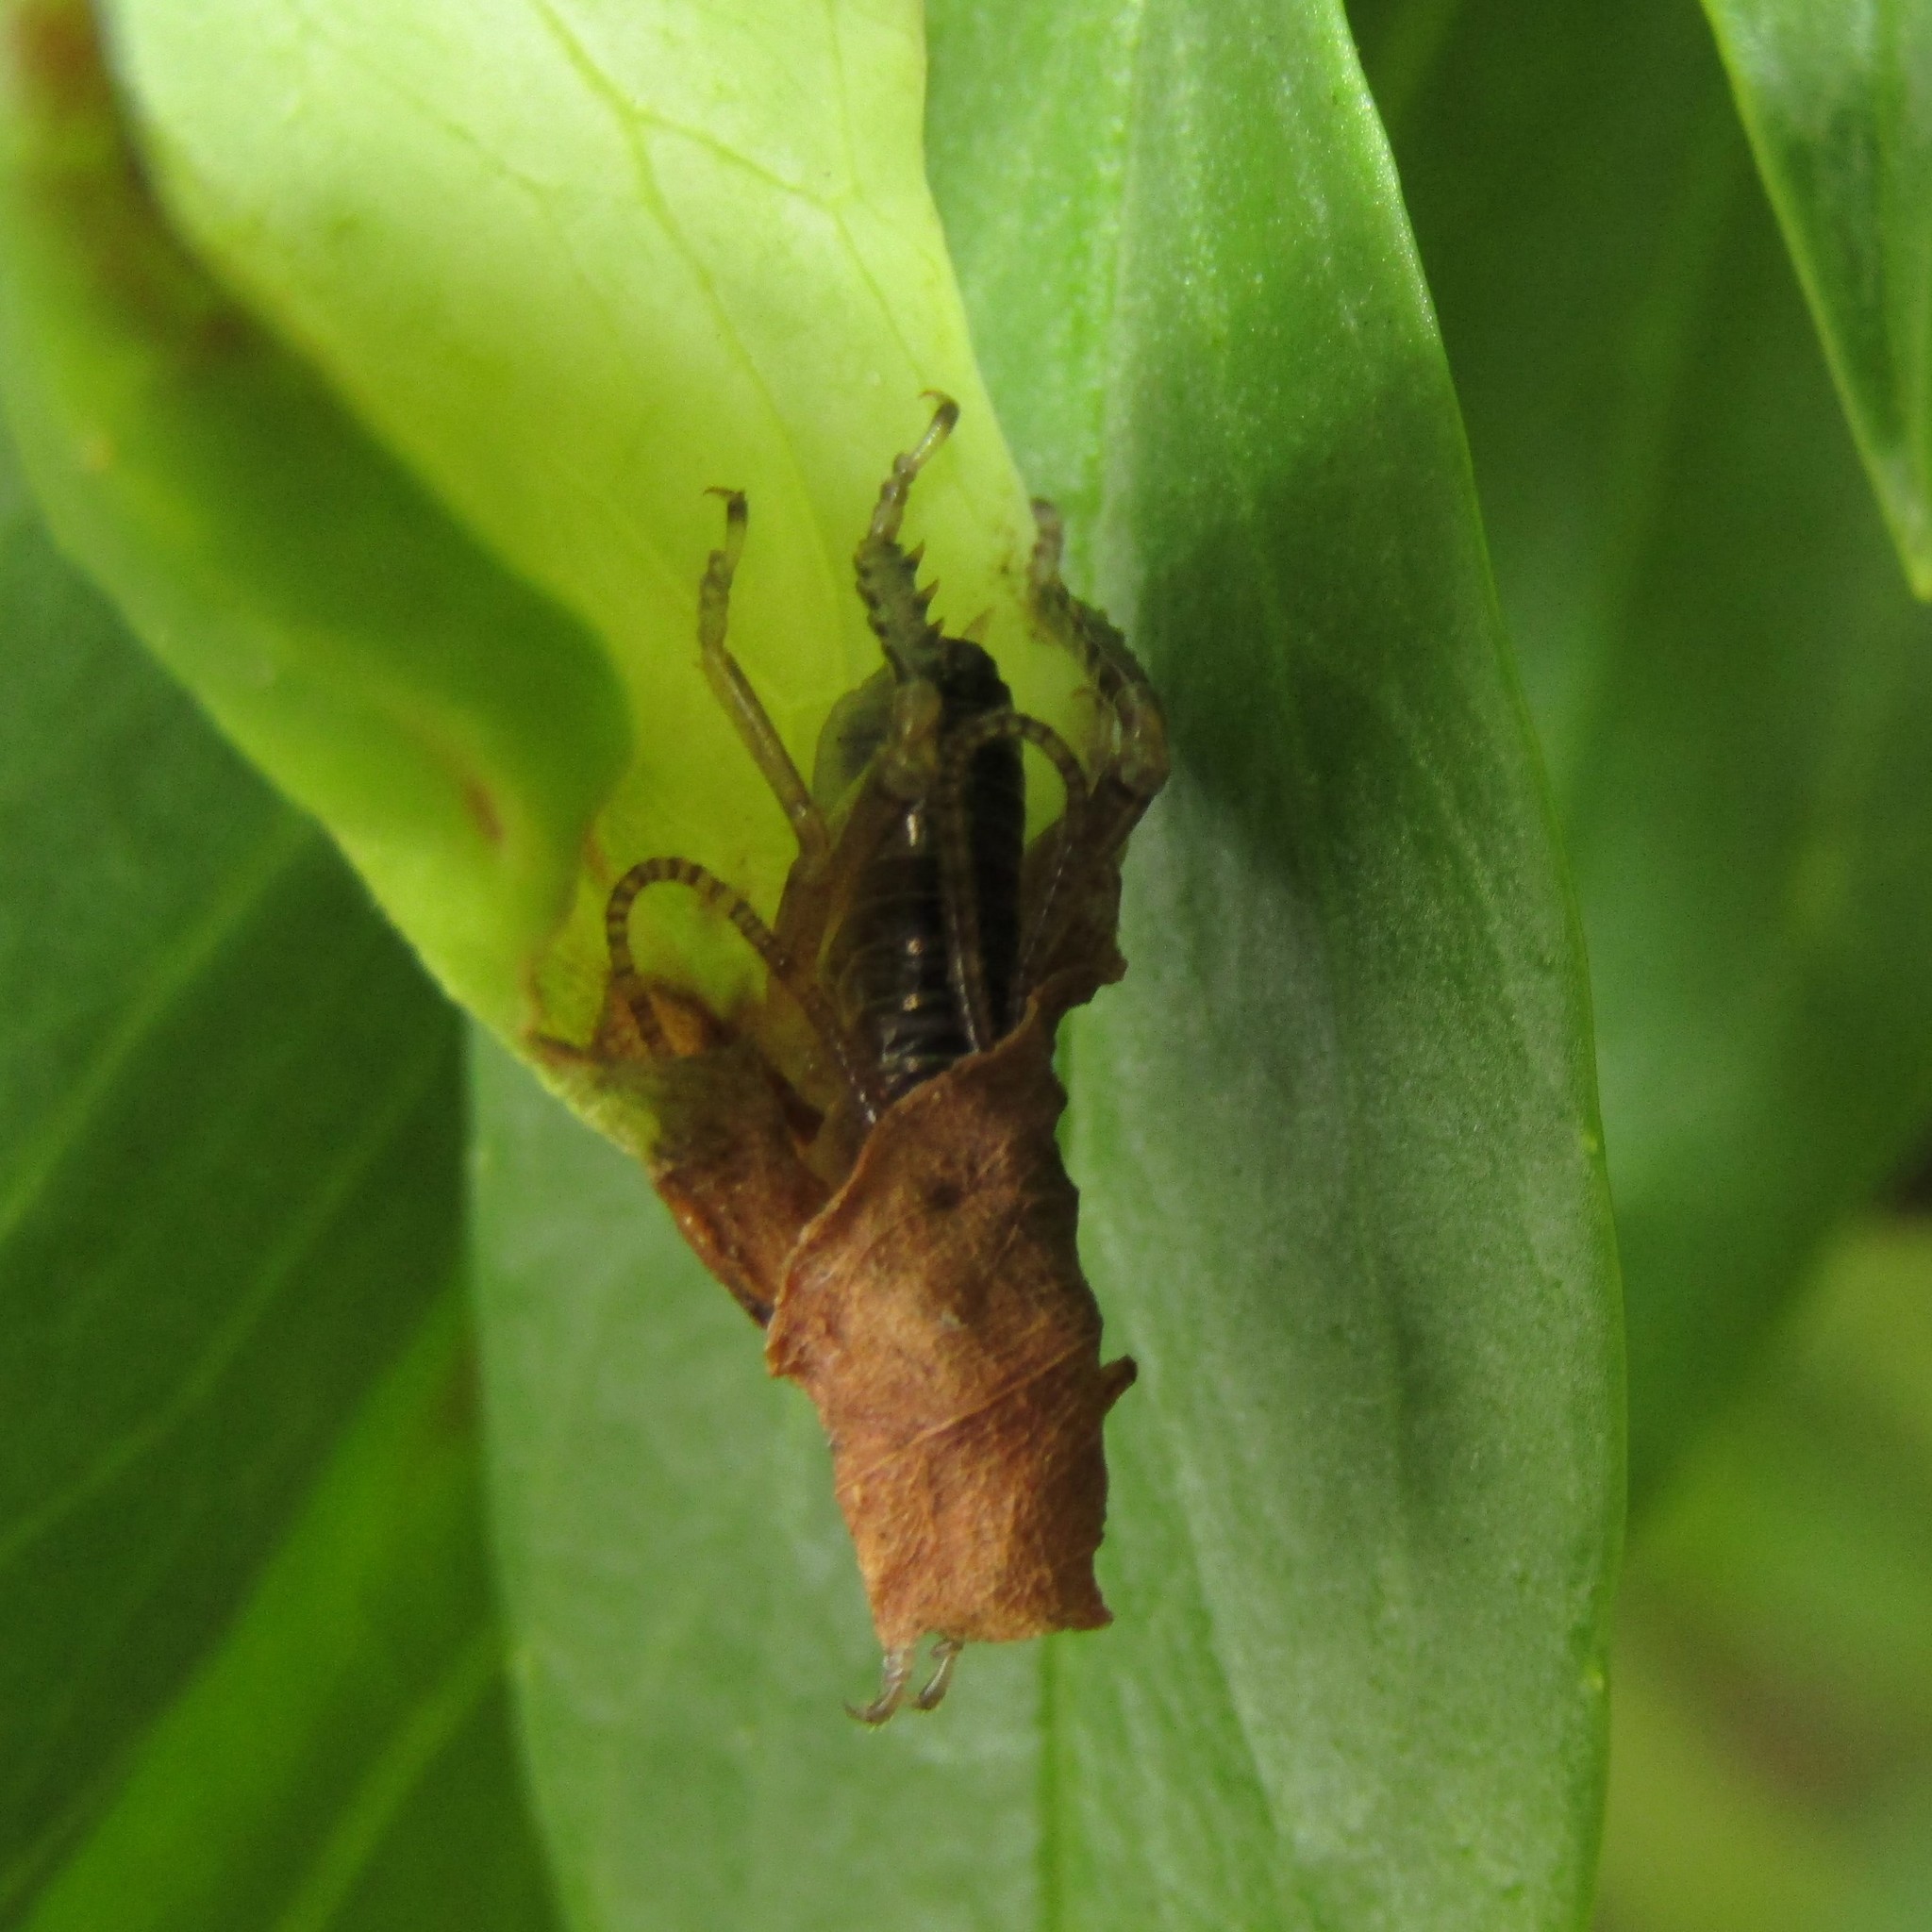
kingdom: Animalia
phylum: Arthropoda
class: Insecta
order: Orthoptera
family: Anostostomatidae
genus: Hemideina
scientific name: Hemideina crassidens
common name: Wellington tree weta
